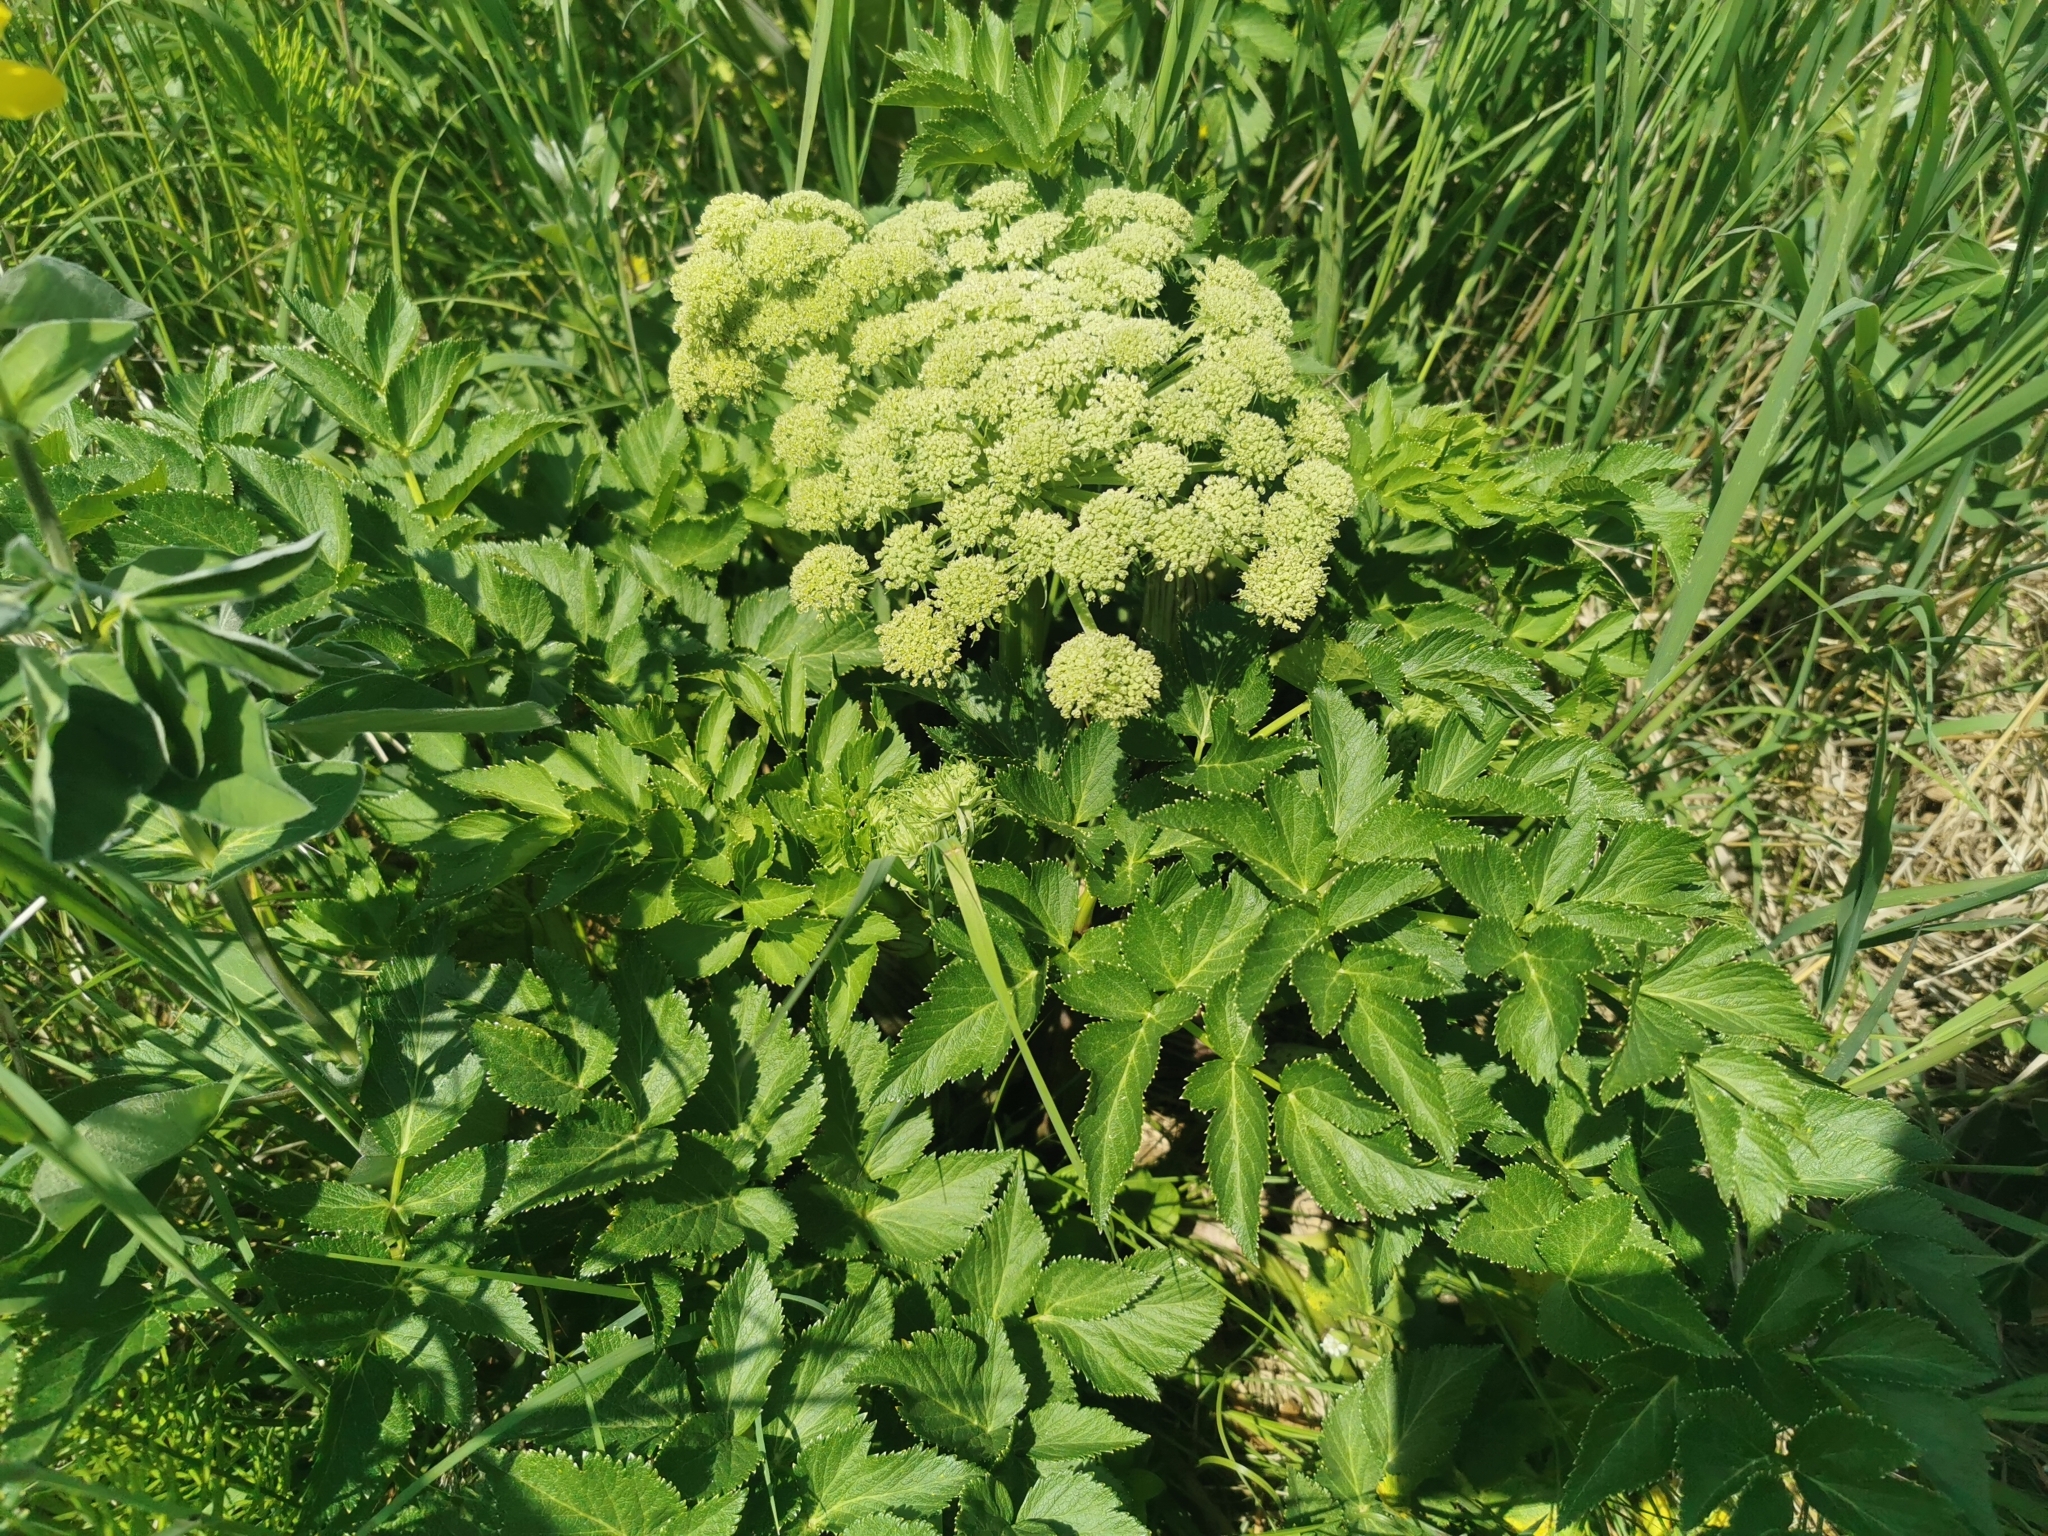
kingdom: Plantae
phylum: Tracheophyta
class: Magnoliopsida
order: Apiales
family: Apiaceae
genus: Angelica
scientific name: Angelica gmelinii
